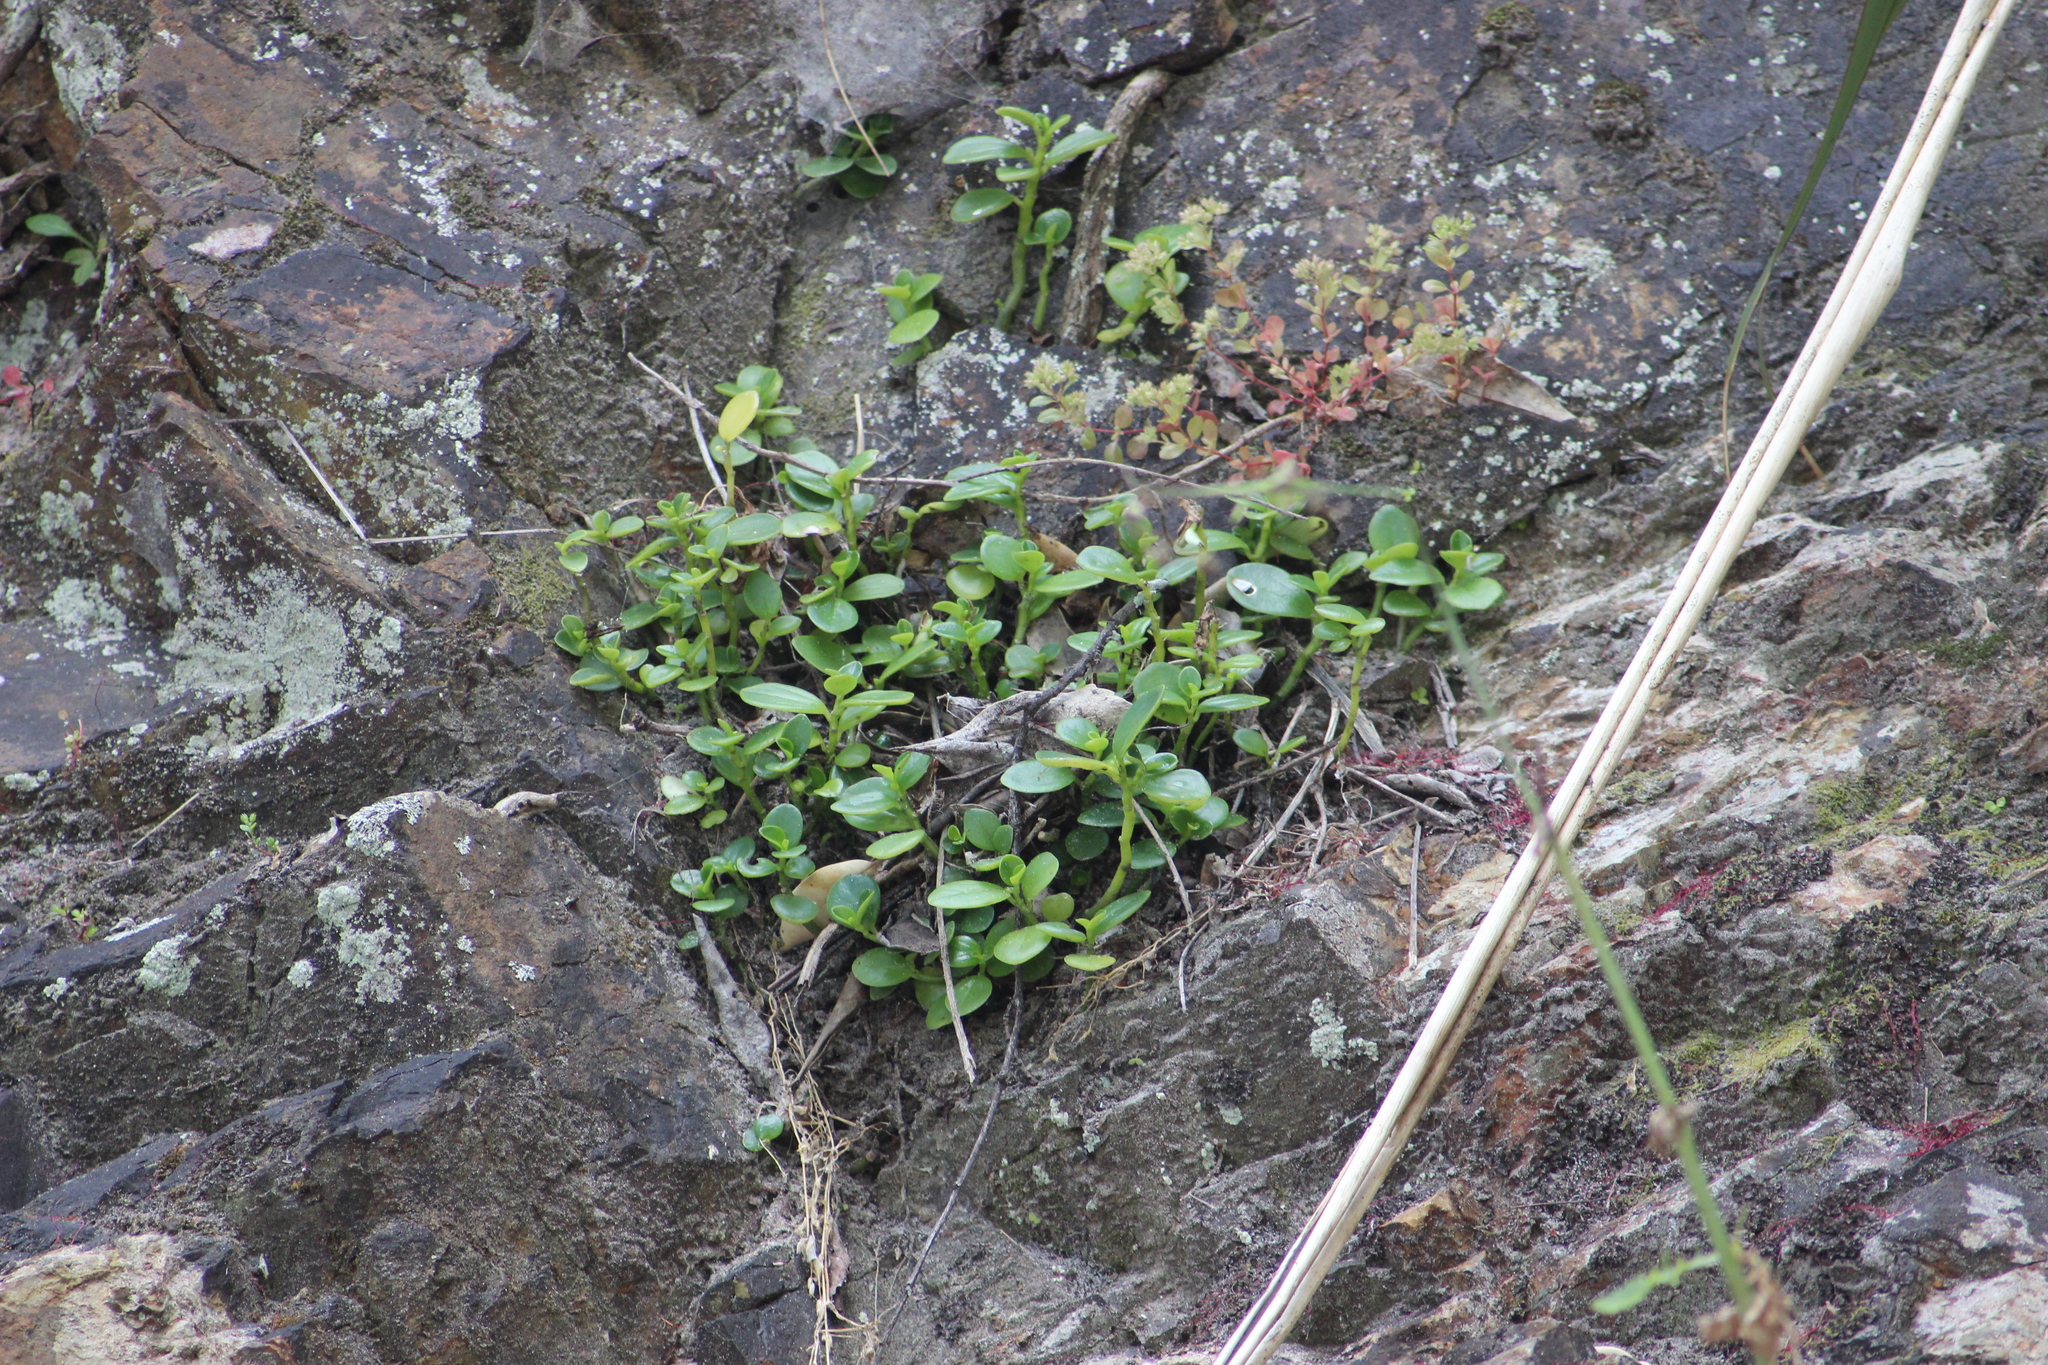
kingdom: Plantae
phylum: Tracheophyta
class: Magnoliopsida
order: Piperales
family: Piperaceae
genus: Peperomia
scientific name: Peperomia urvilleana
